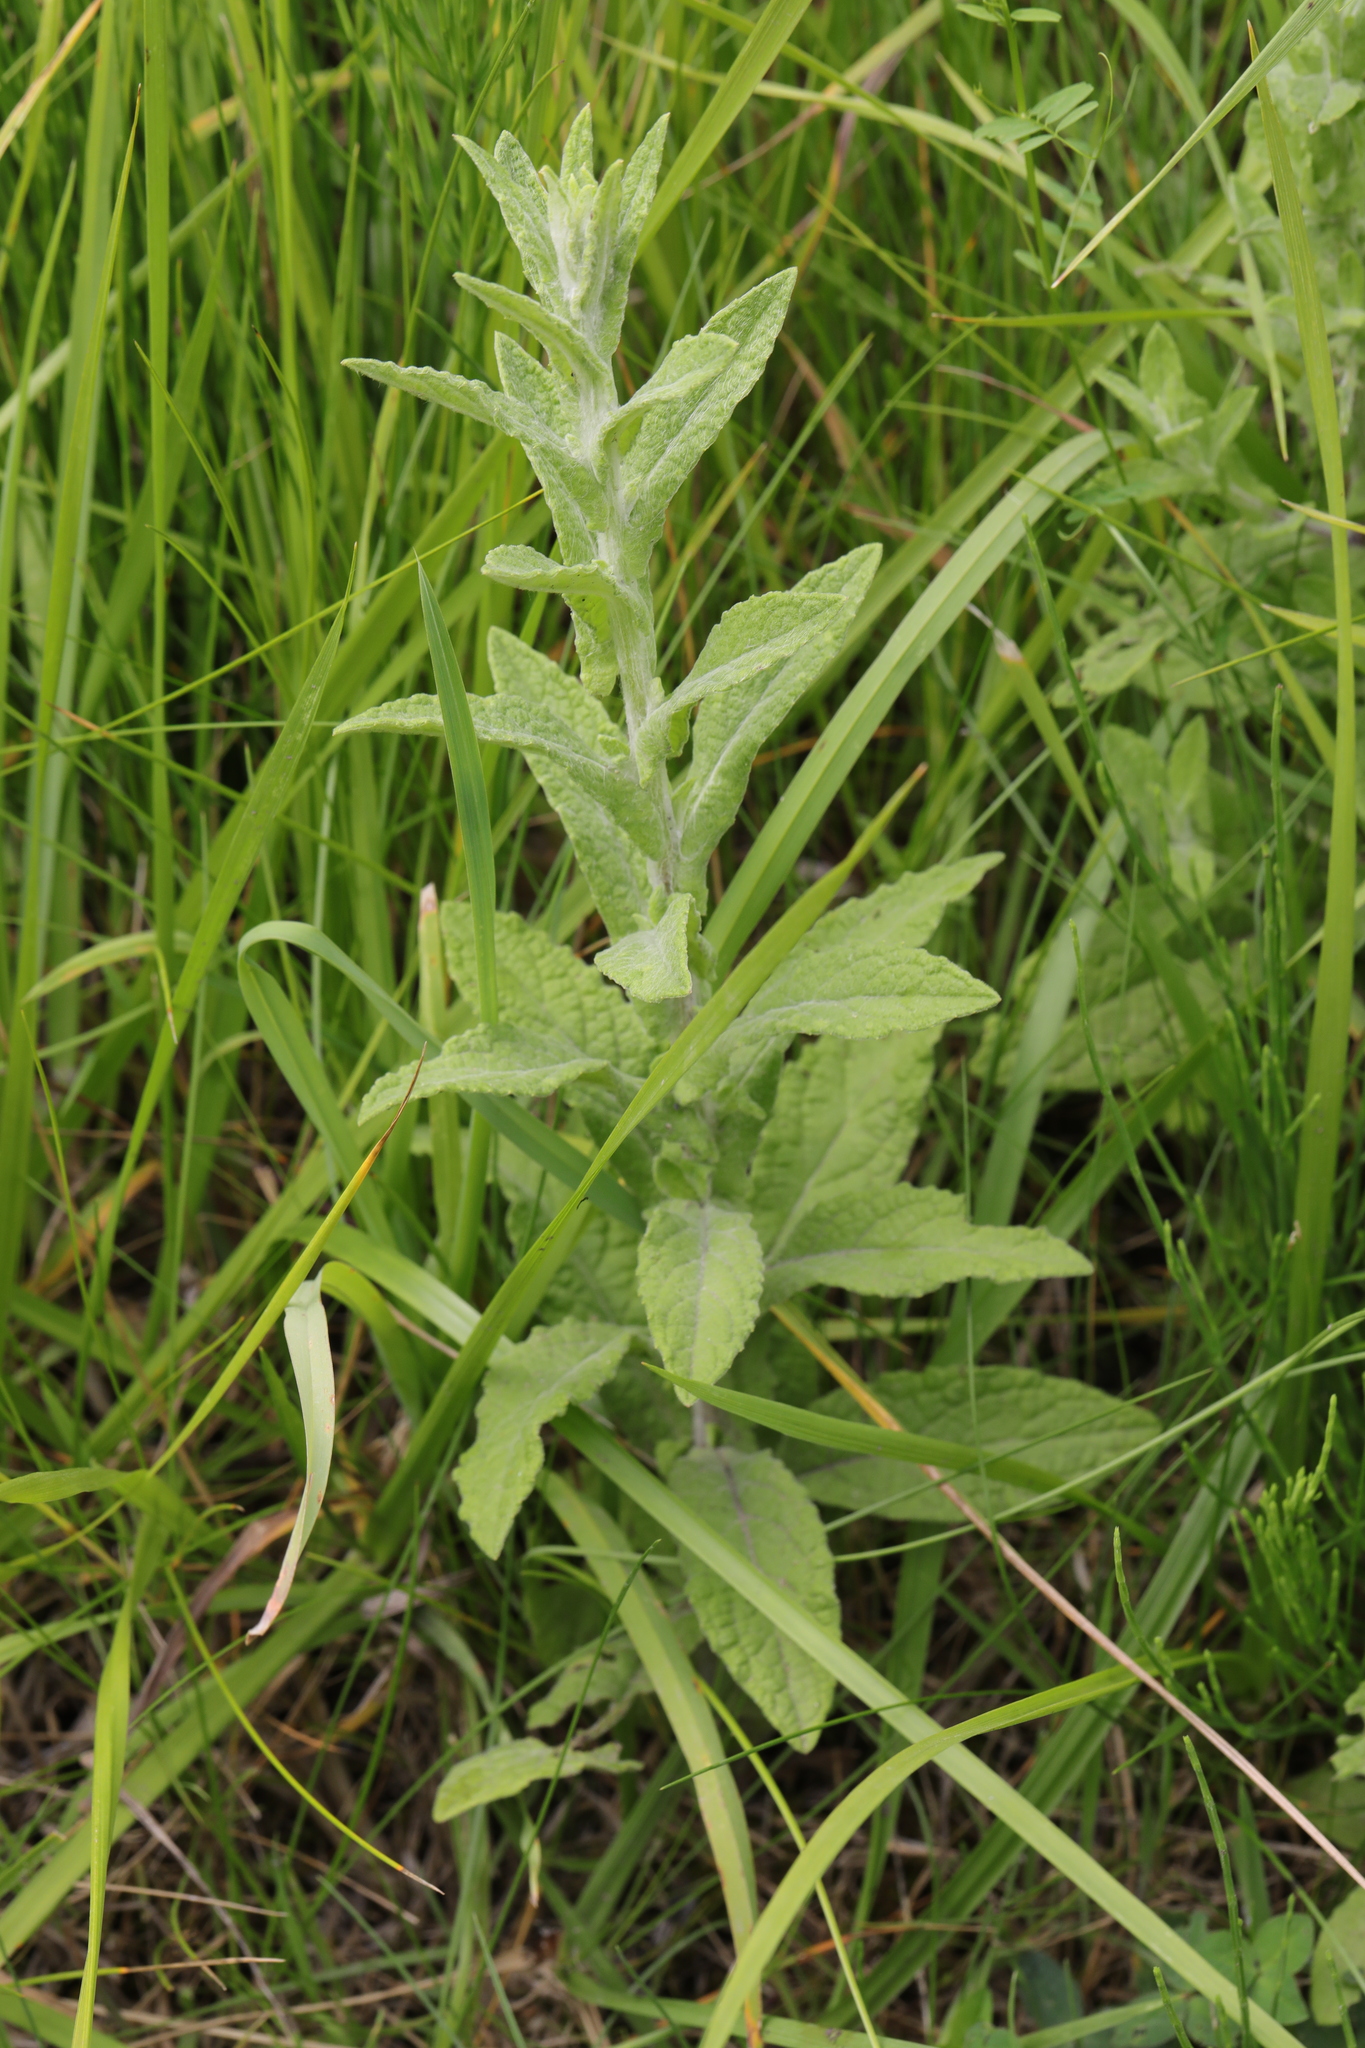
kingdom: Plantae
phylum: Tracheophyta
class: Magnoliopsida
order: Asterales
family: Asteraceae
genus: Pulicaria
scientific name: Pulicaria dysenterica
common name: Common fleabane
